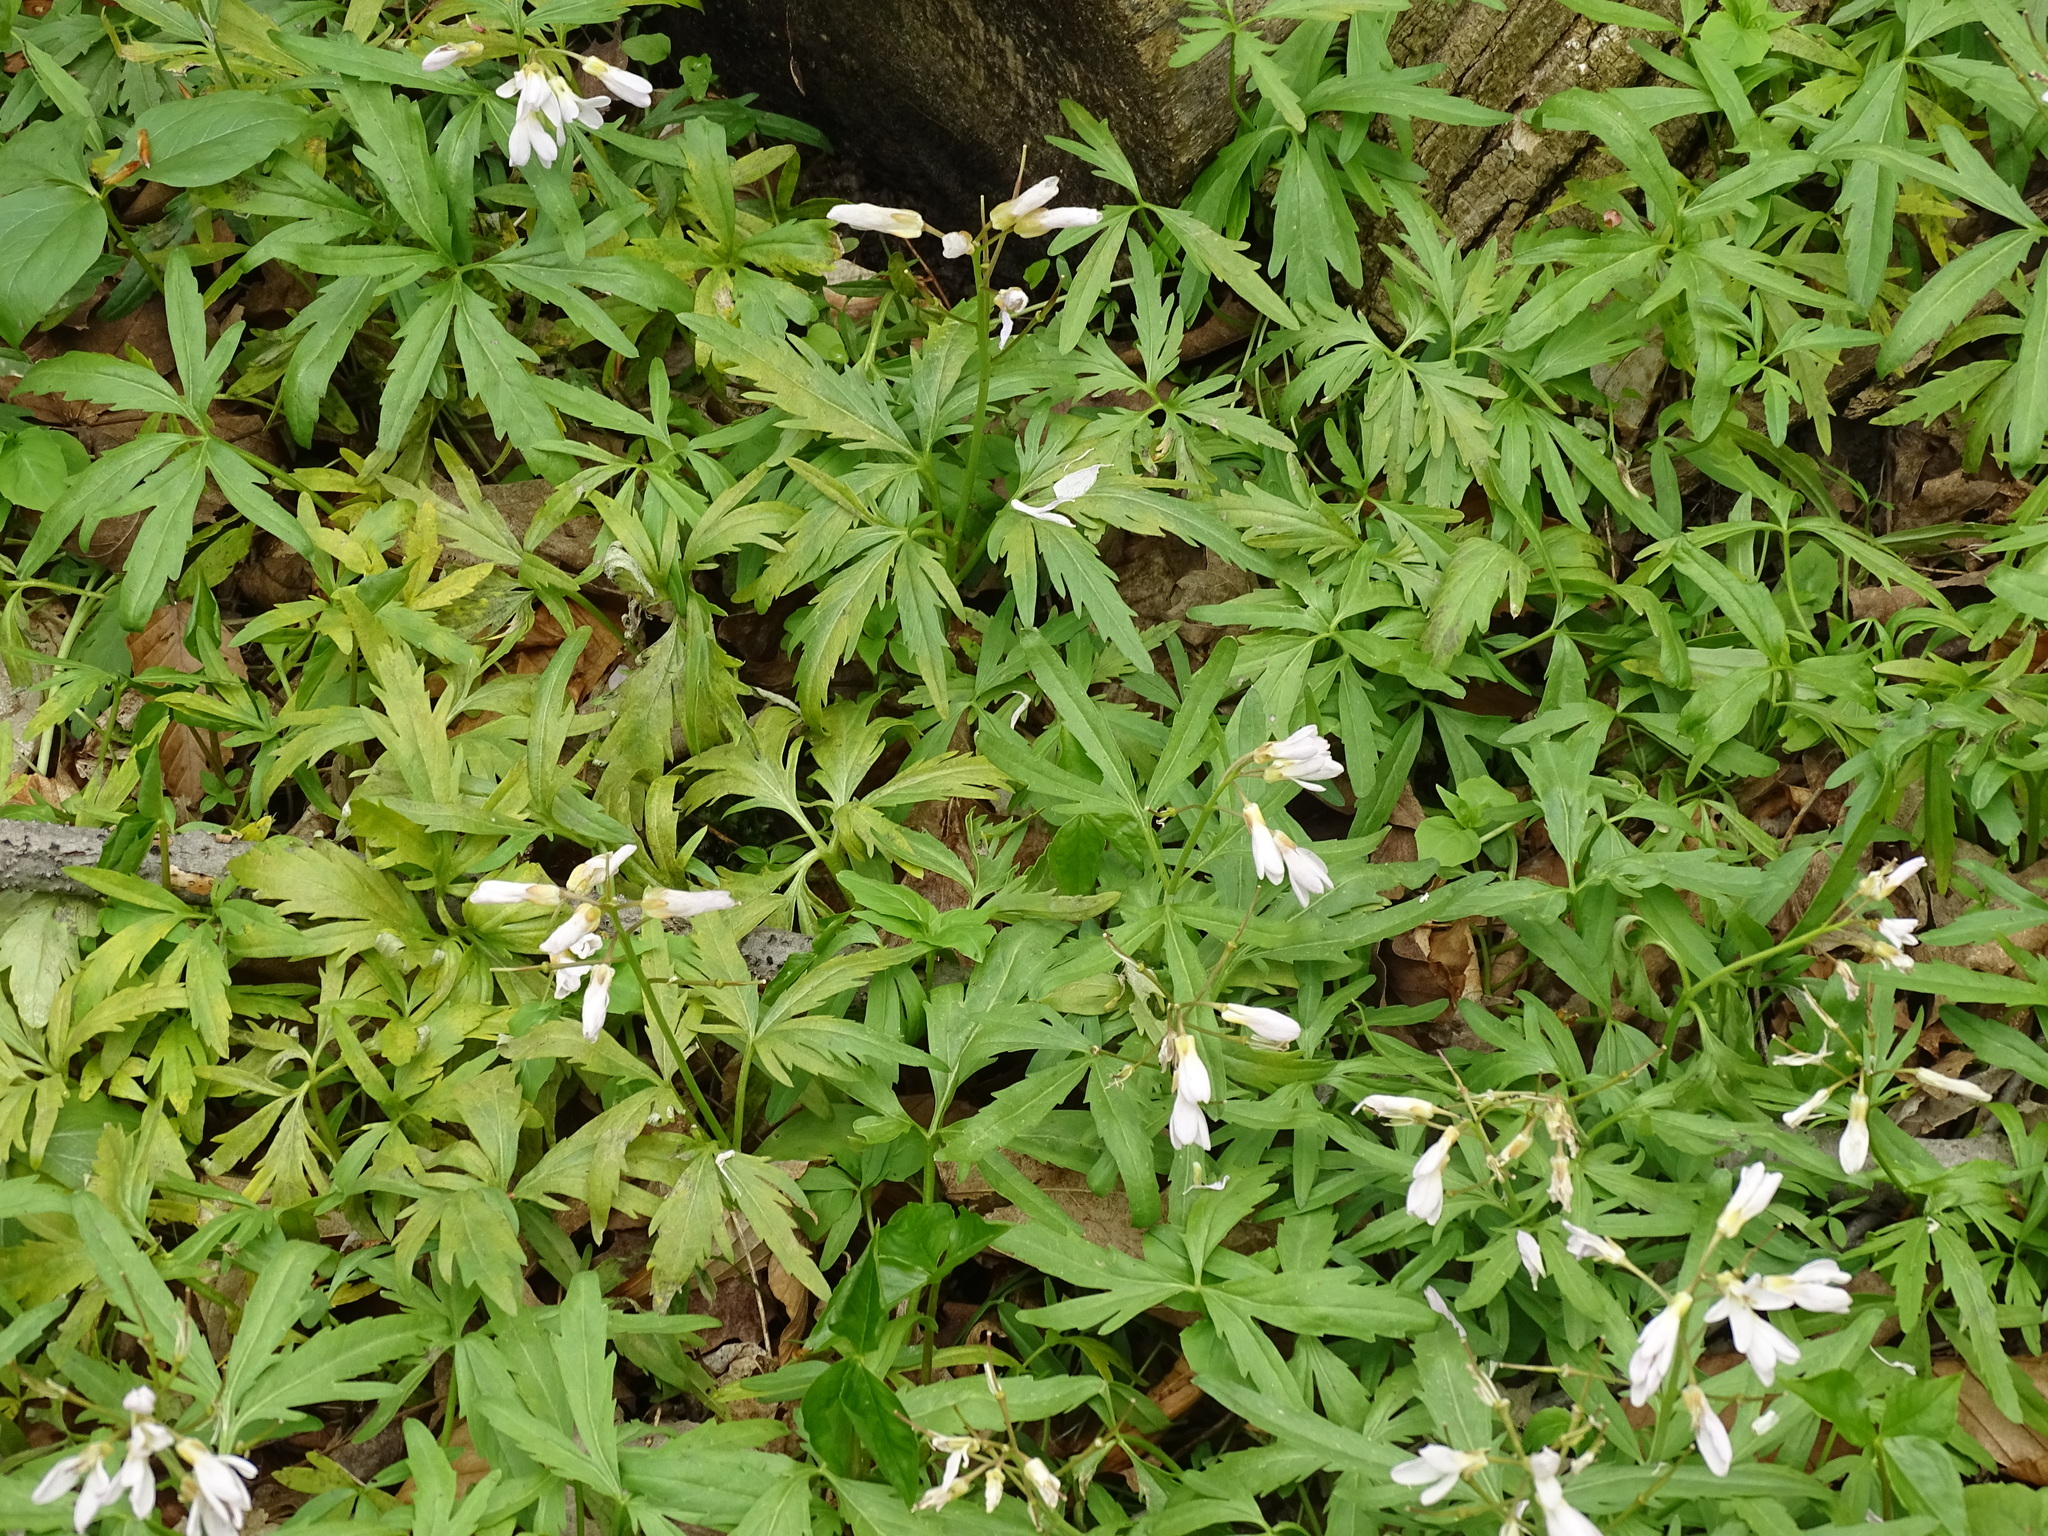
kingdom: Plantae
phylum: Tracheophyta
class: Magnoliopsida
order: Brassicales
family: Brassicaceae
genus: Cardamine
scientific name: Cardamine concatenata
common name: Cut-leaf toothcup
